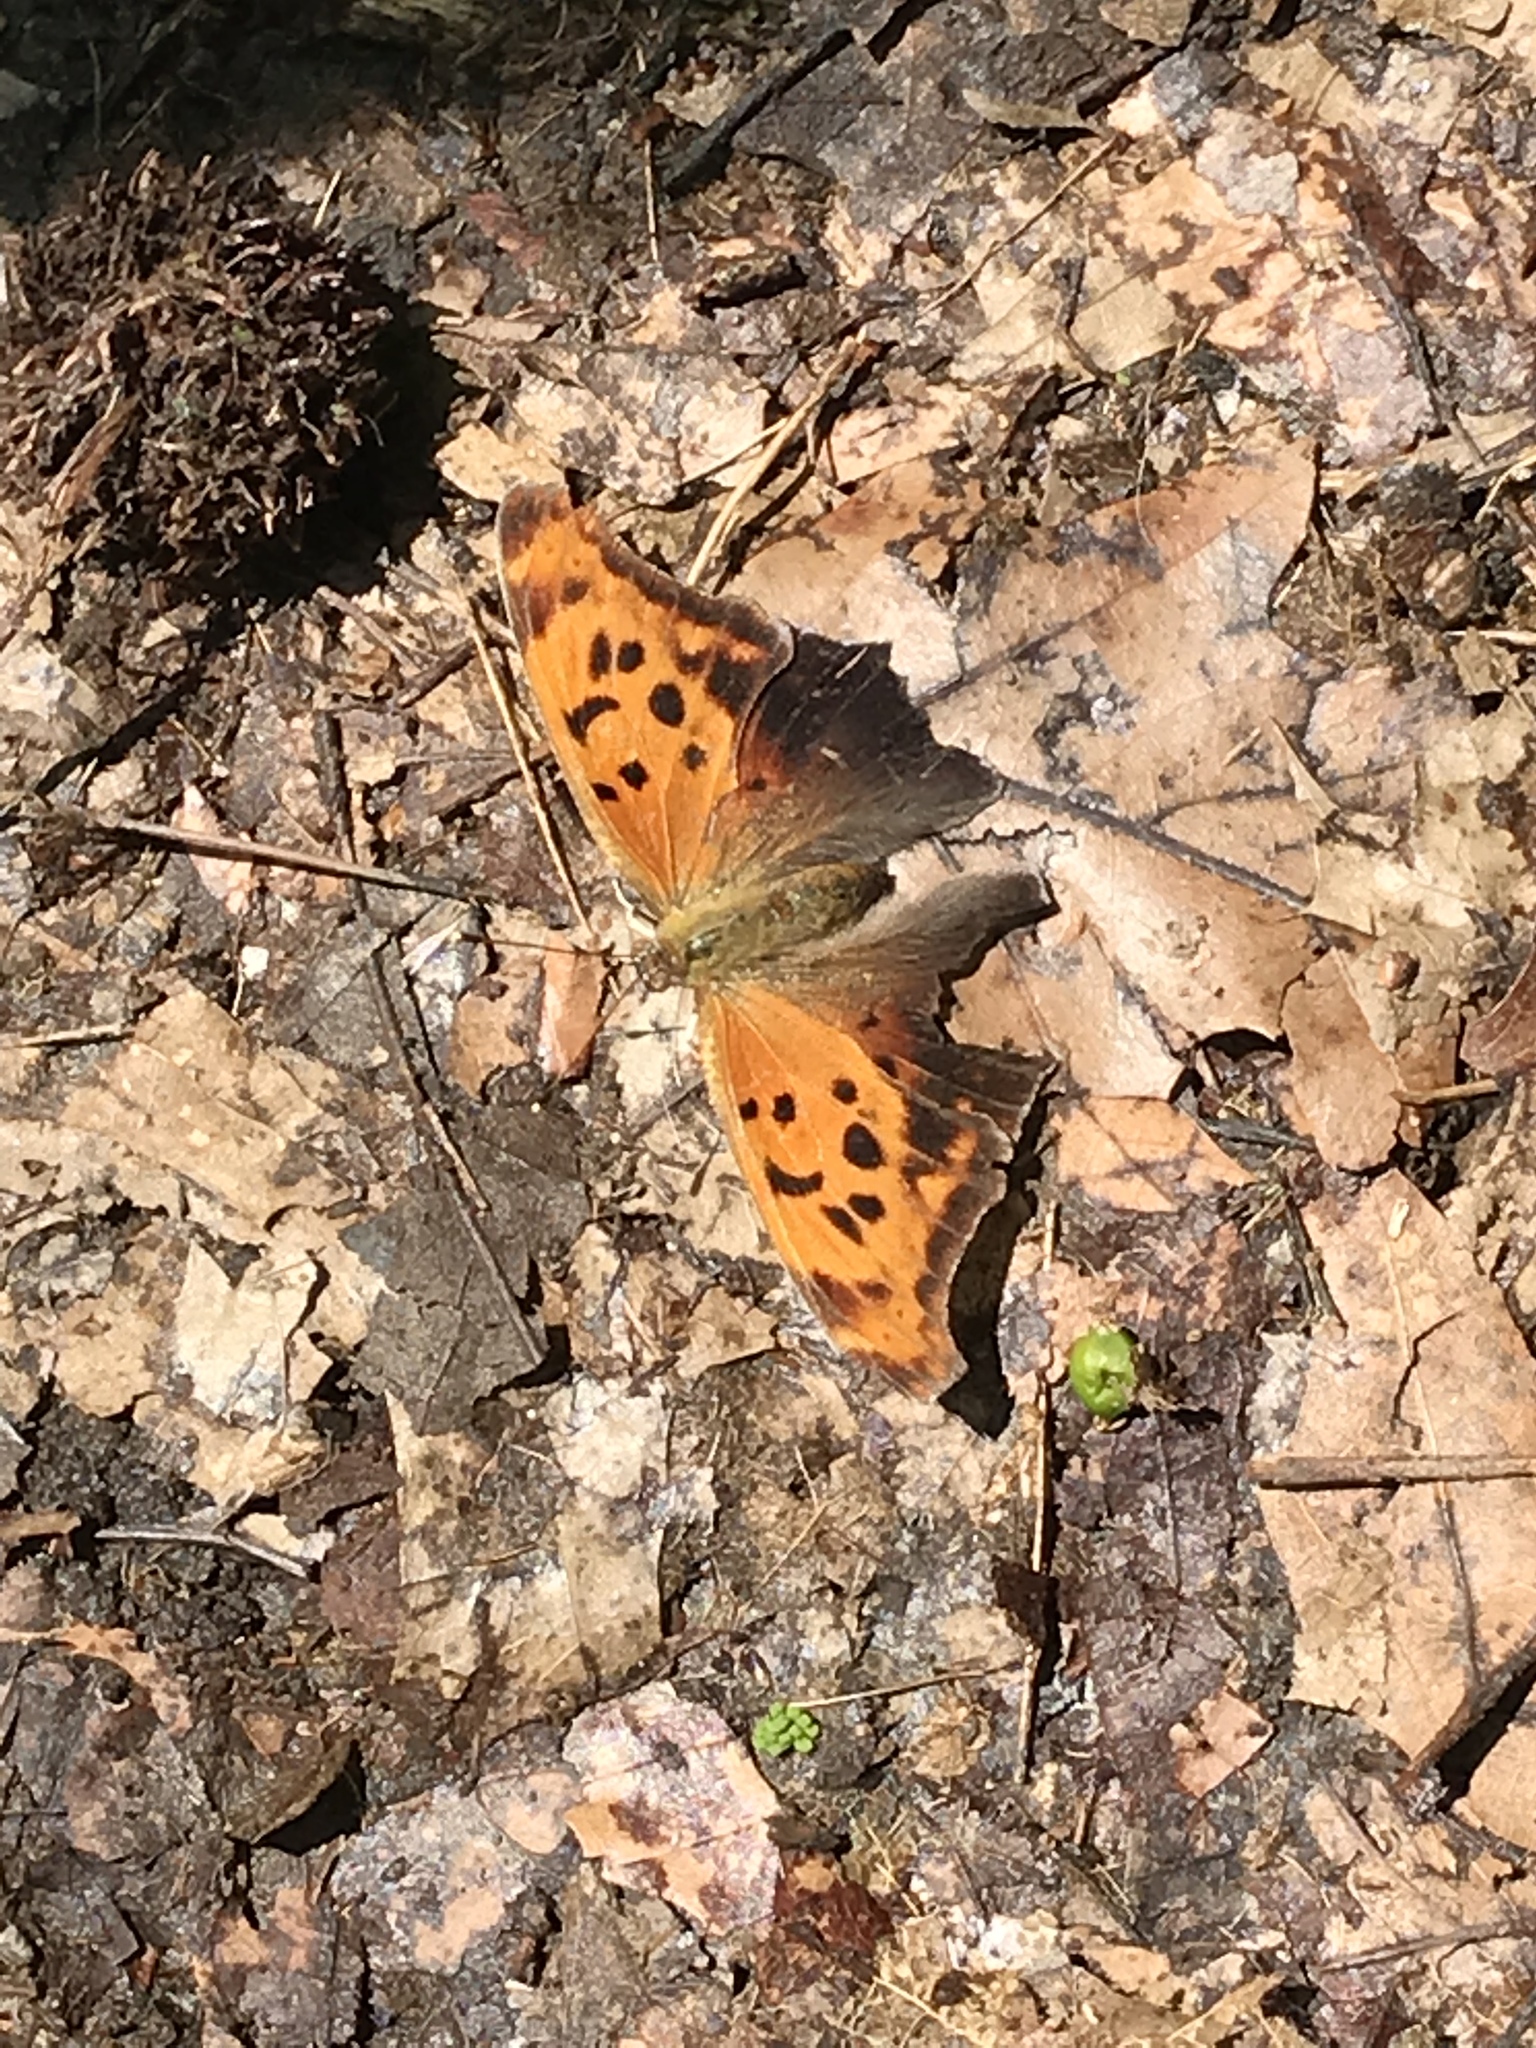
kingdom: Animalia
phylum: Arthropoda
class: Insecta
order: Lepidoptera
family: Nymphalidae
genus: Polygonia
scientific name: Polygonia interrogationis
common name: Question mark
